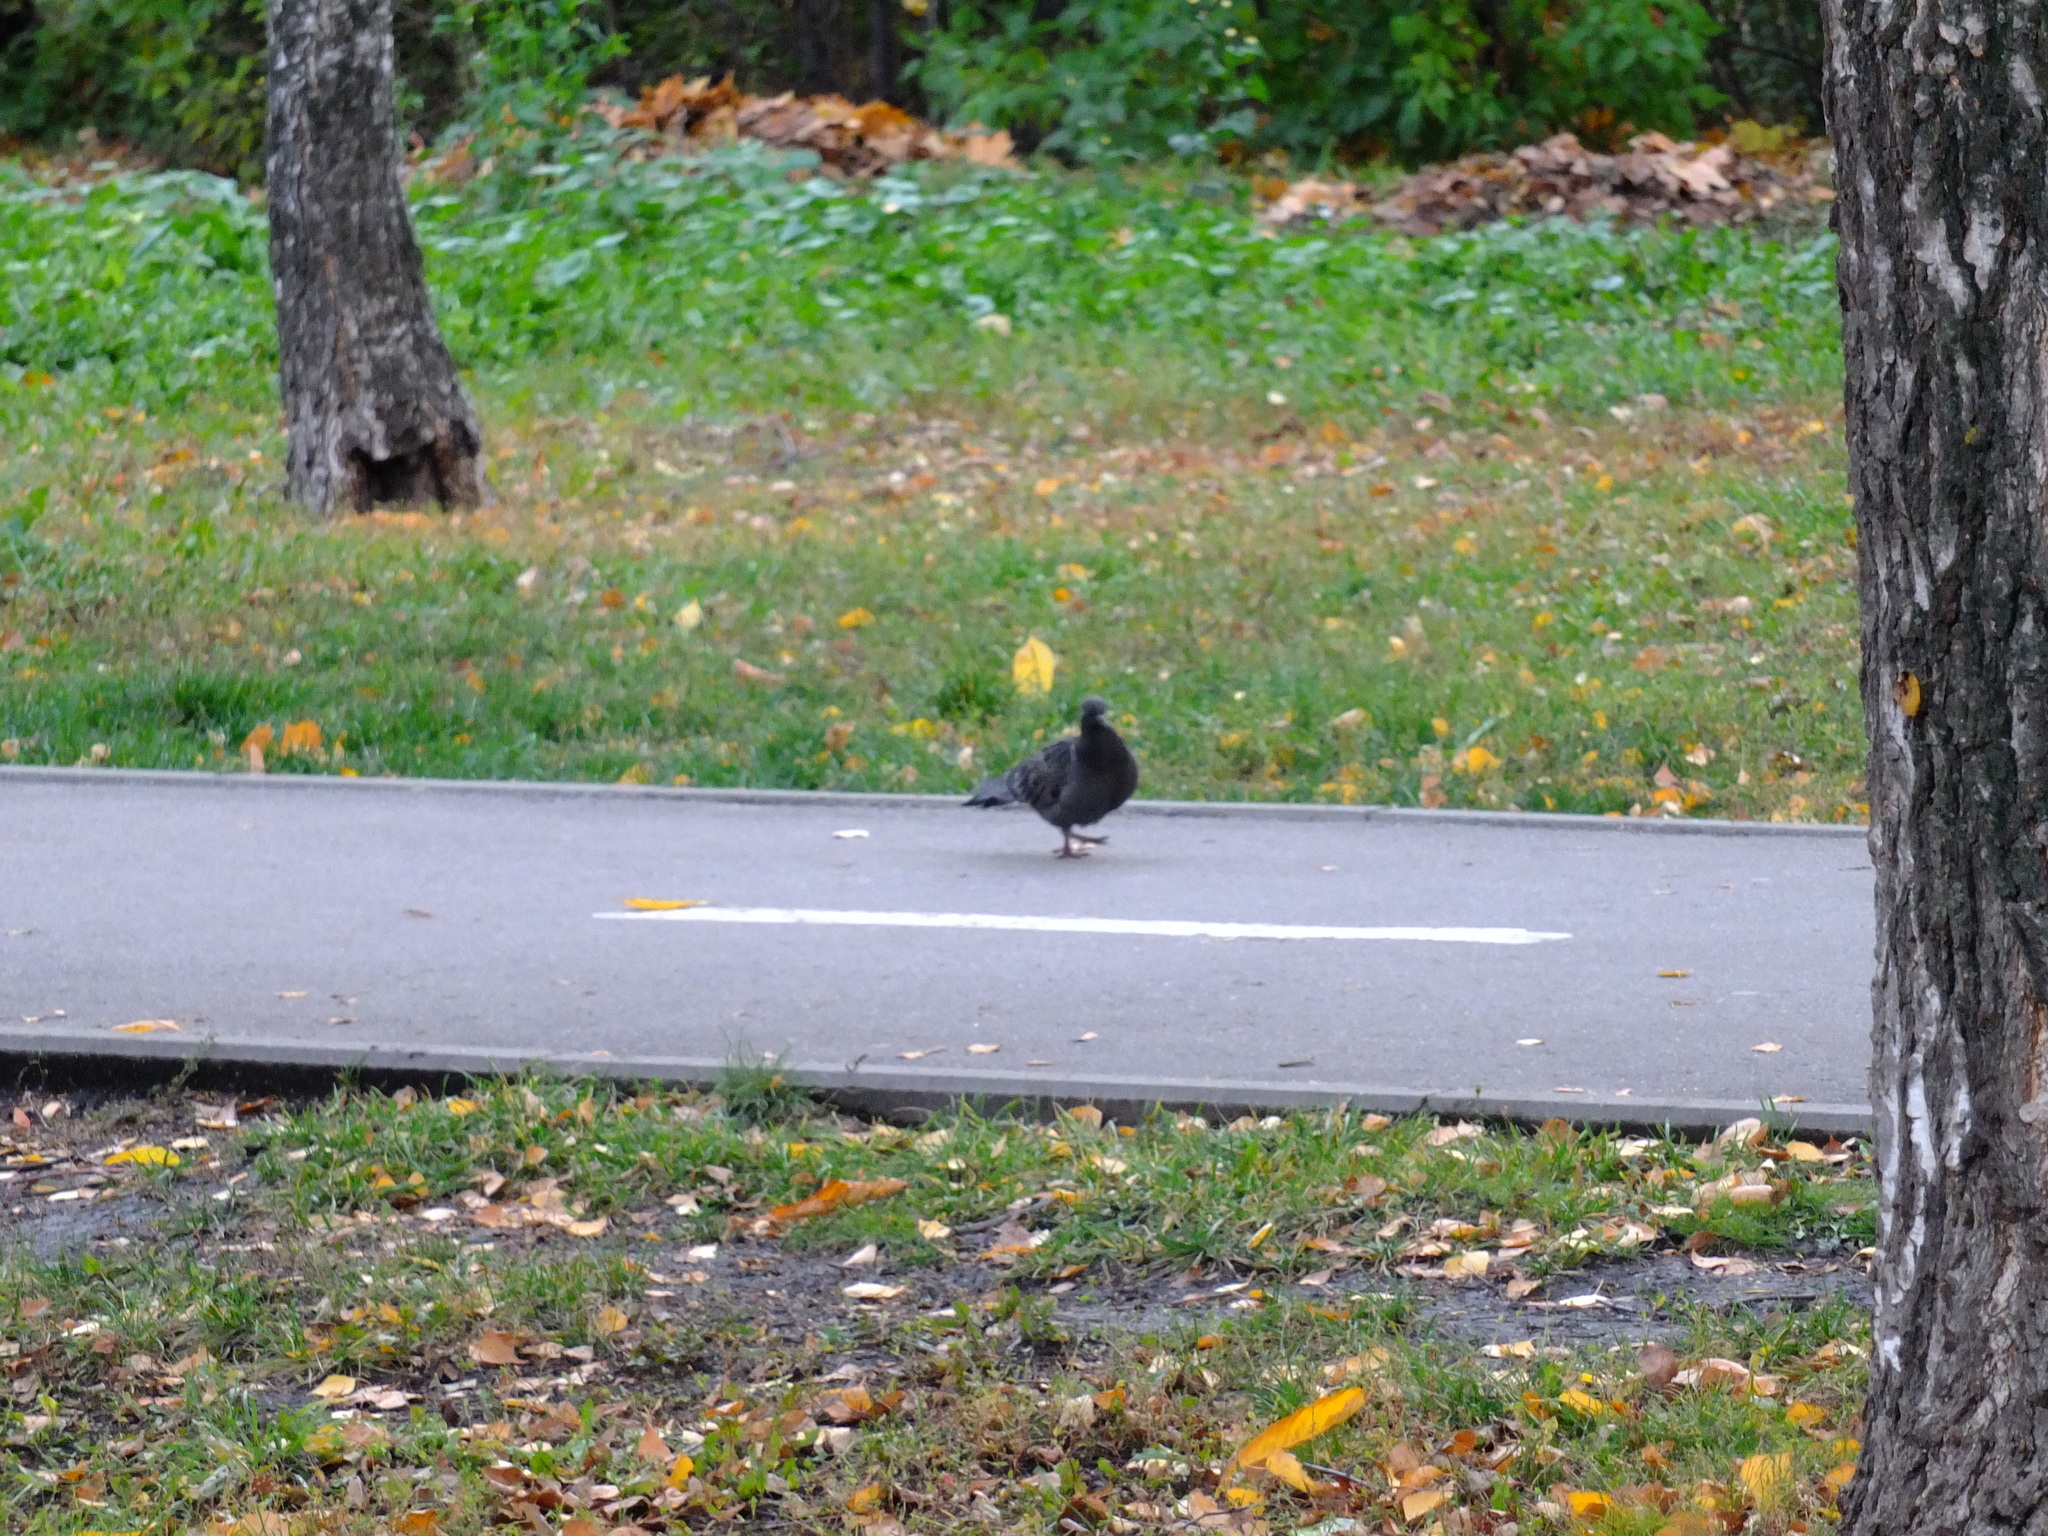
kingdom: Animalia
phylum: Chordata
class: Aves
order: Columbiformes
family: Columbidae
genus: Columba
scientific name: Columba livia
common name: Rock pigeon
